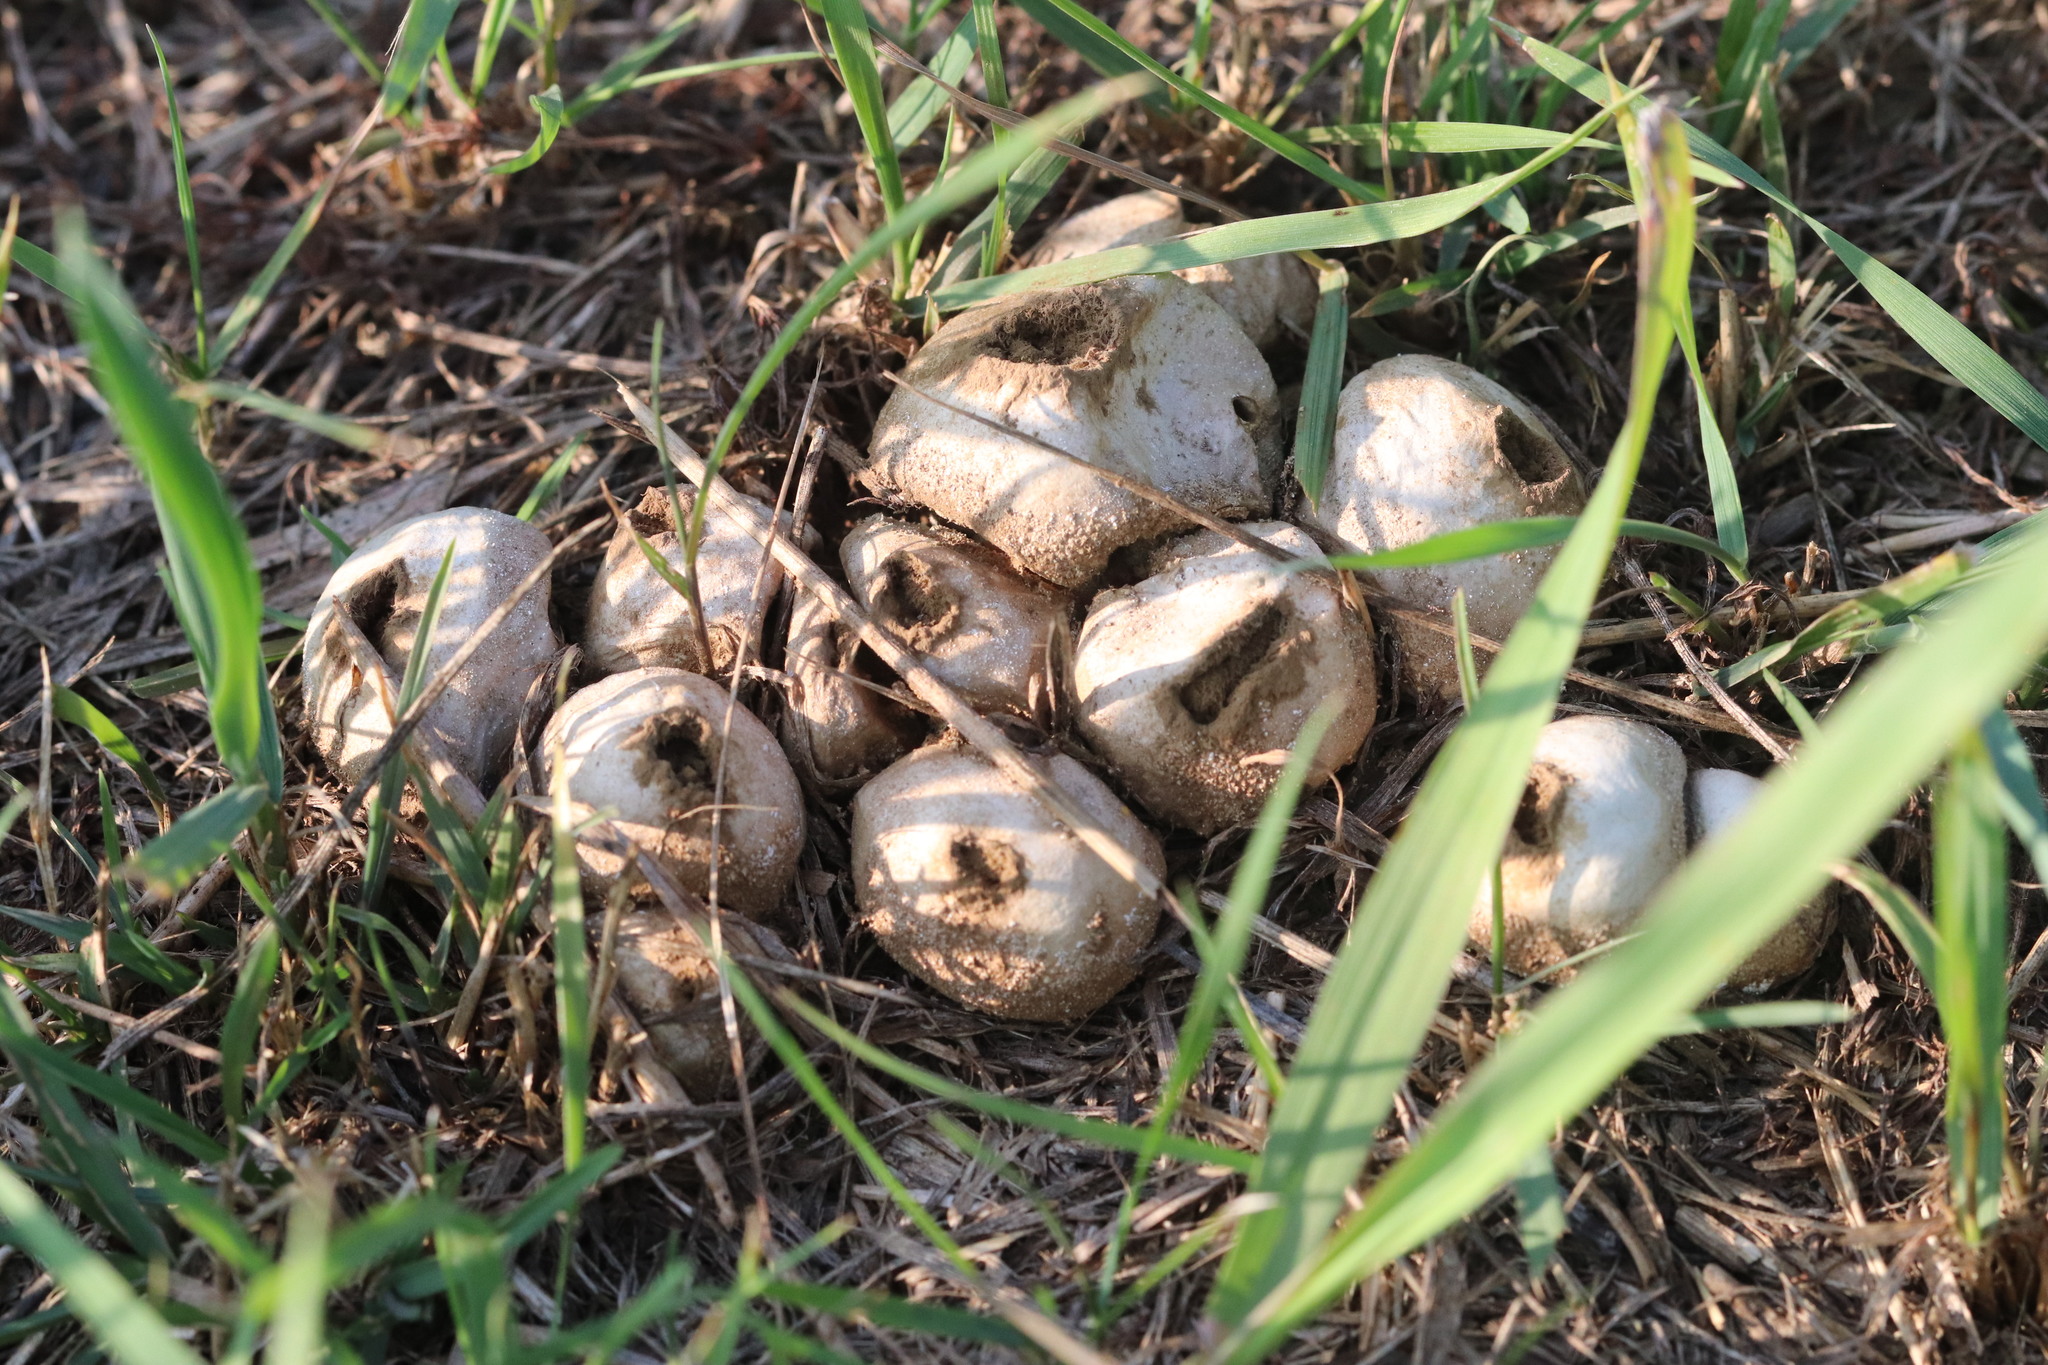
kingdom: Fungi
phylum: Basidiomycota
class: Agaricomycetes
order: Agaricales
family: Lycoperdaceae
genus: Lycoperdon
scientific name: Lycoperdon pratense
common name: Meadow puffball
